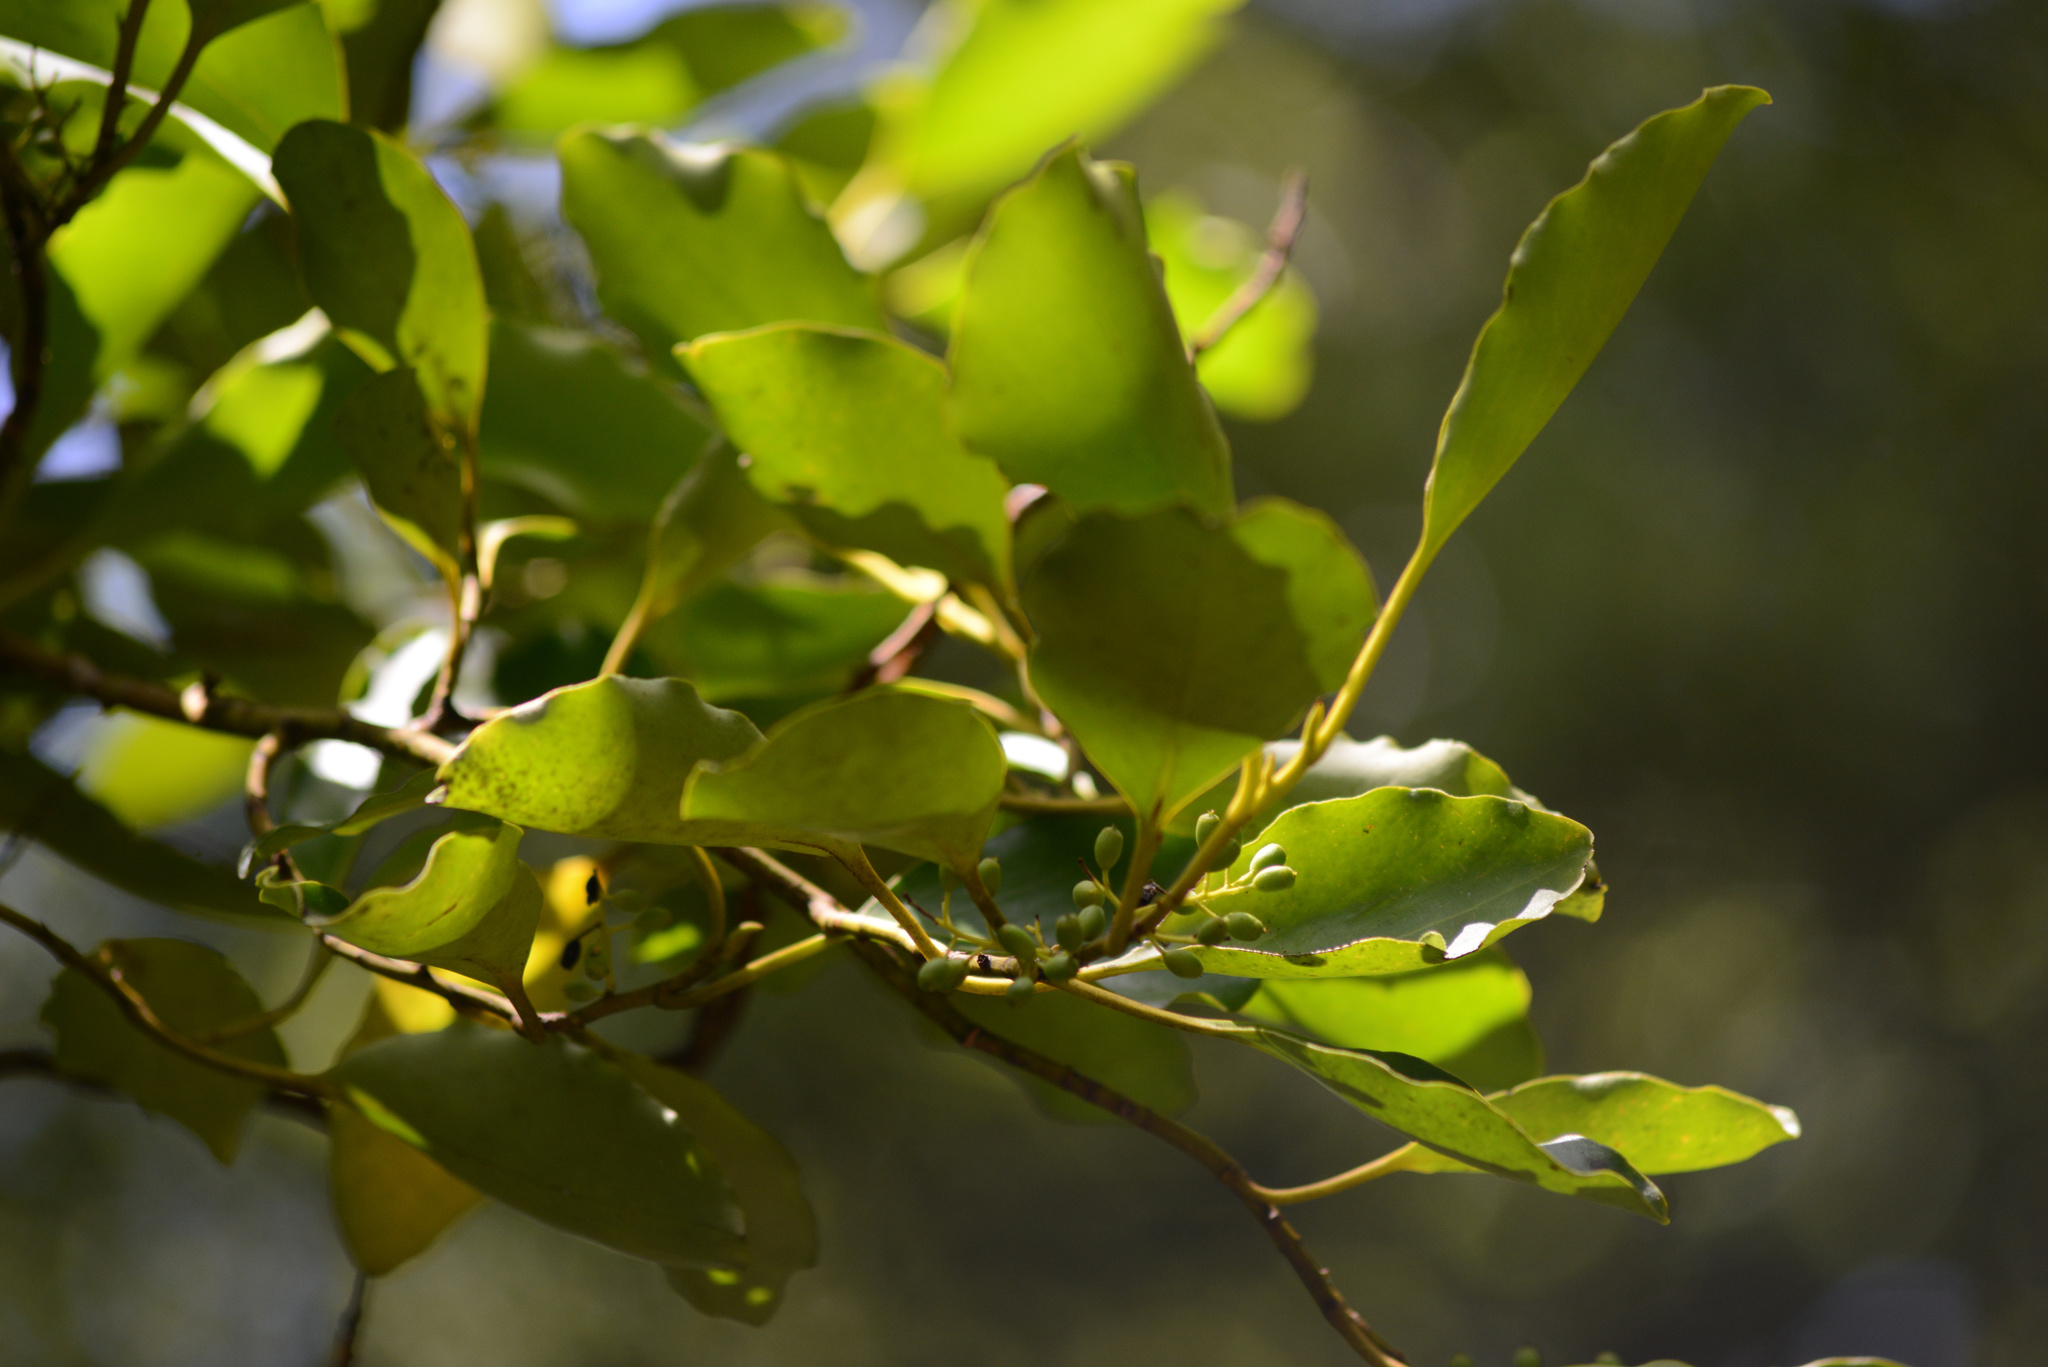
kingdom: Plantae
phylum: Tracheophyta
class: Magnoliopsida
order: Apiales
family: Griseliniaceae
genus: Griselinia
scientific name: Griselinia littoralis
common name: New zealand broadleaf
